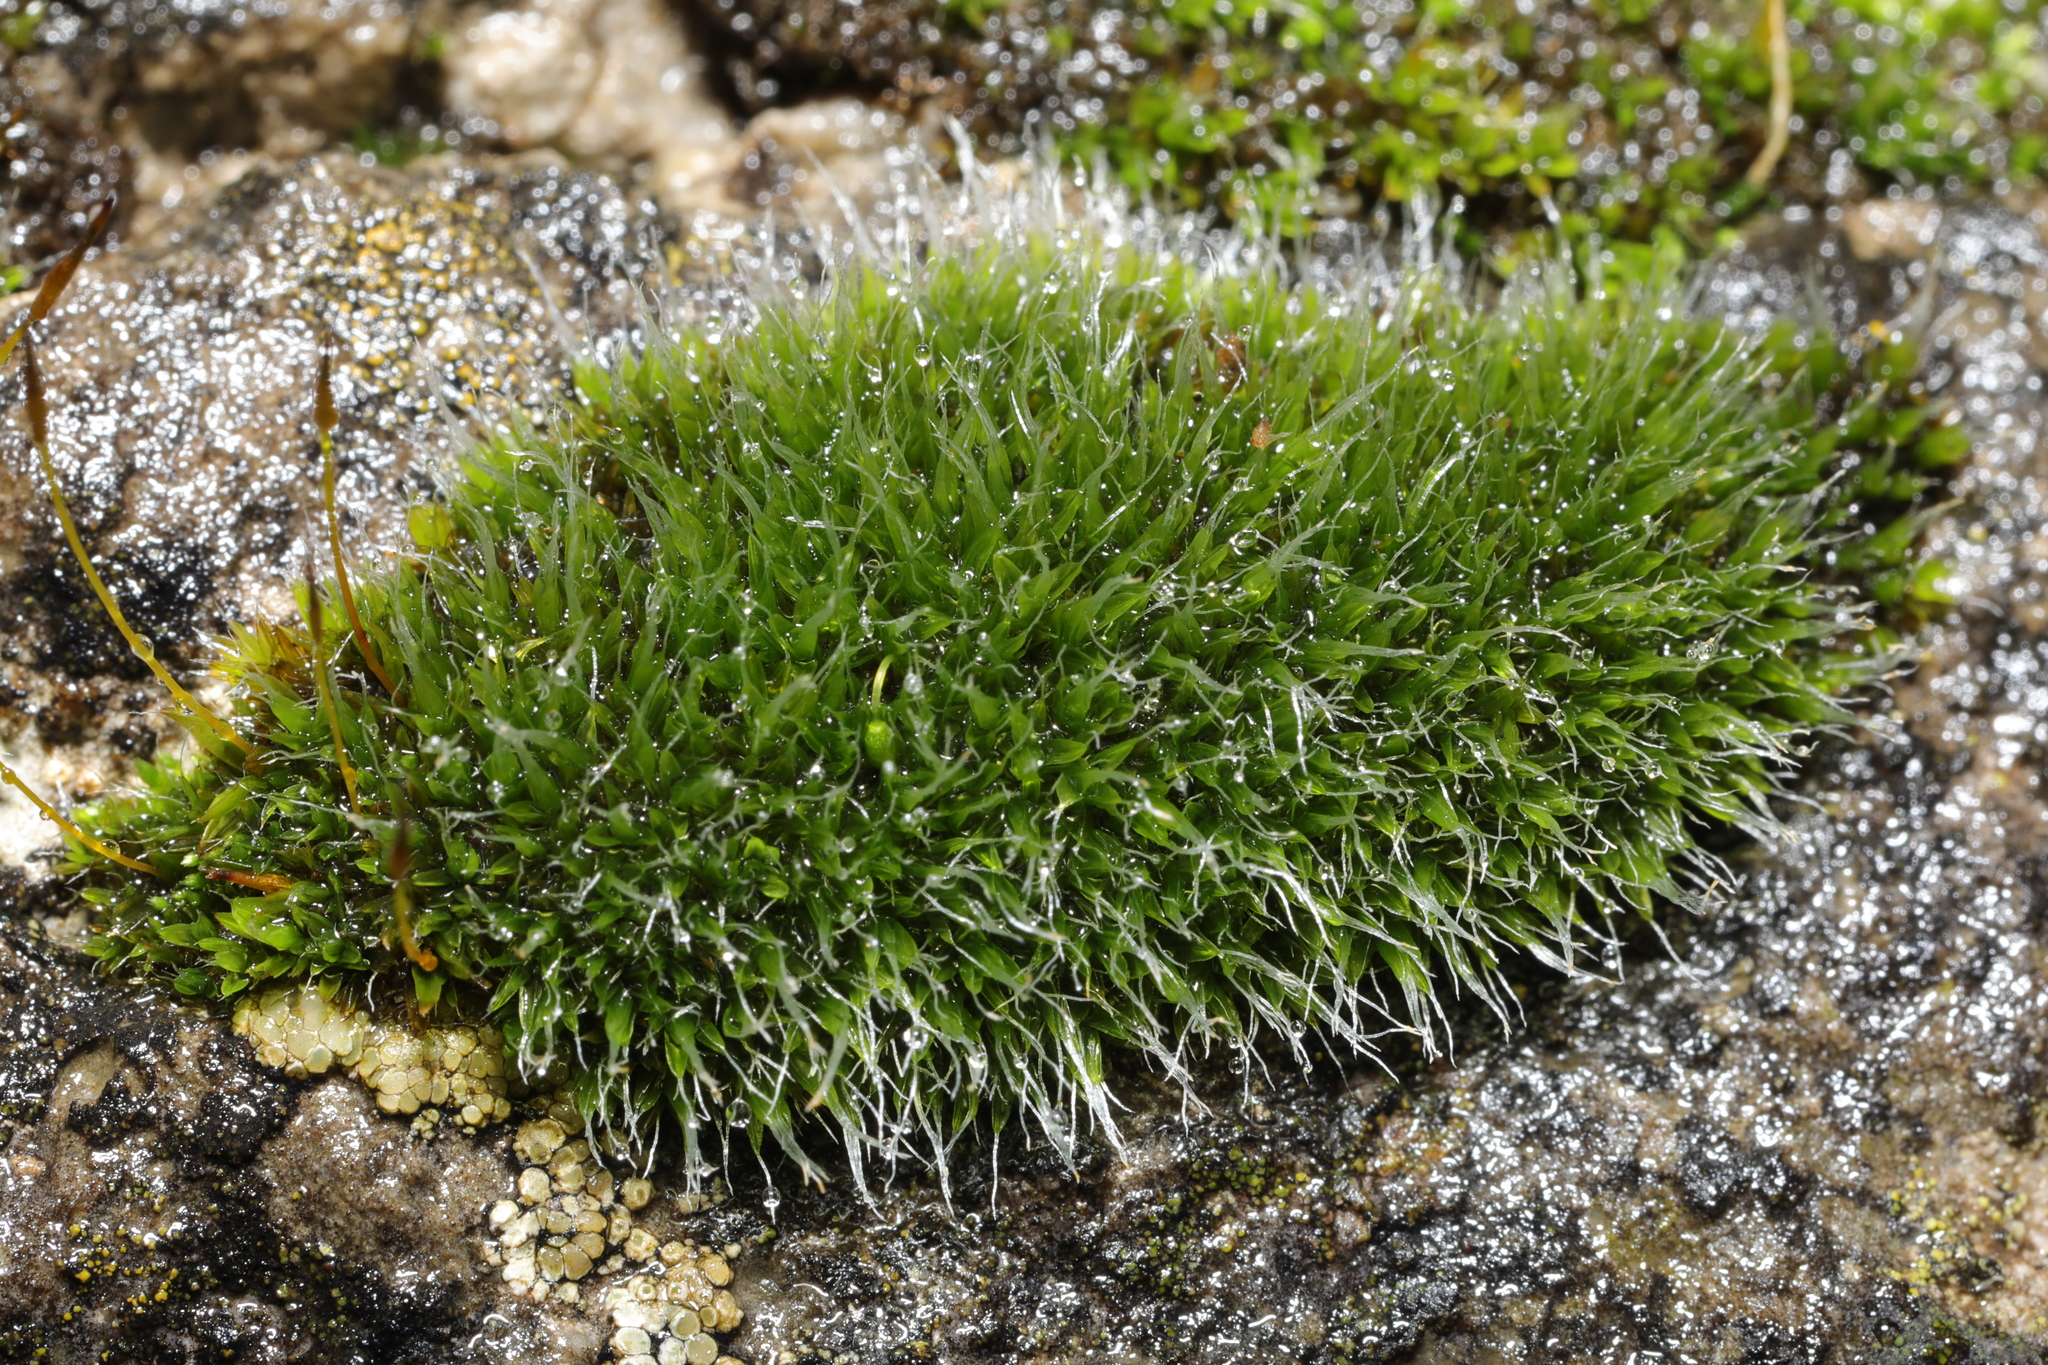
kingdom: Plantae
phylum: Bryophyta
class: Bryopsida
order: Grimmiales
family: Grimmiaceae
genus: Grimmia
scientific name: Grimmia pulvinata
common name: Grey-cushioned grimmia
